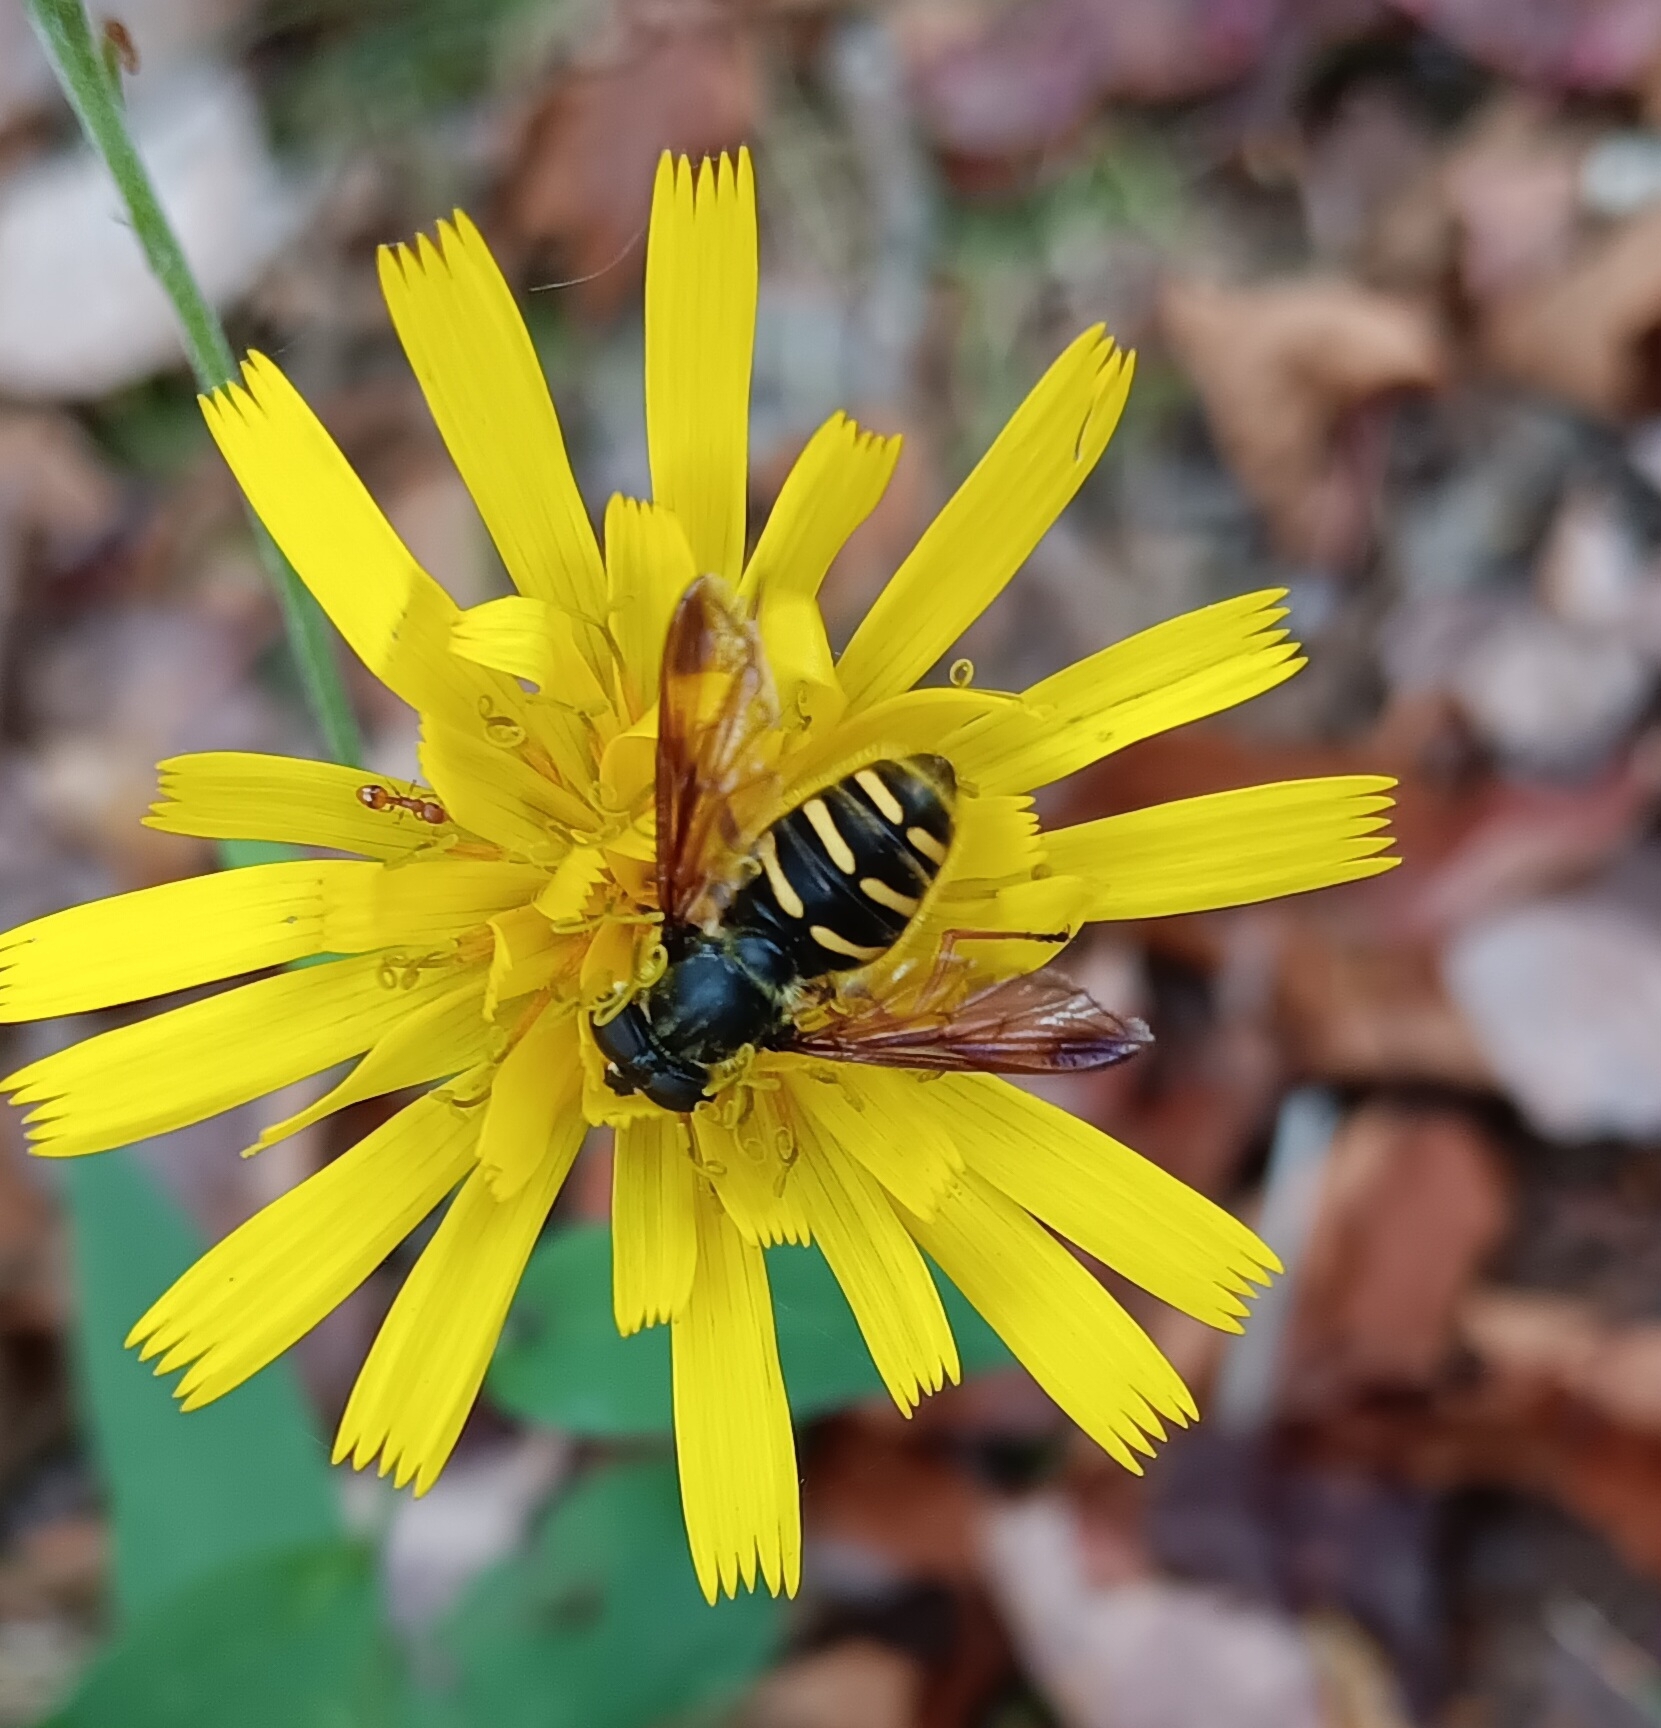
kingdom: Animalia
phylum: Arthropoda
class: Insecta
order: Diptera
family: Syrphidae
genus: Sericomyia
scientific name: Sericomyia chrysotoxoides
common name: Oblique-banded pond fly
